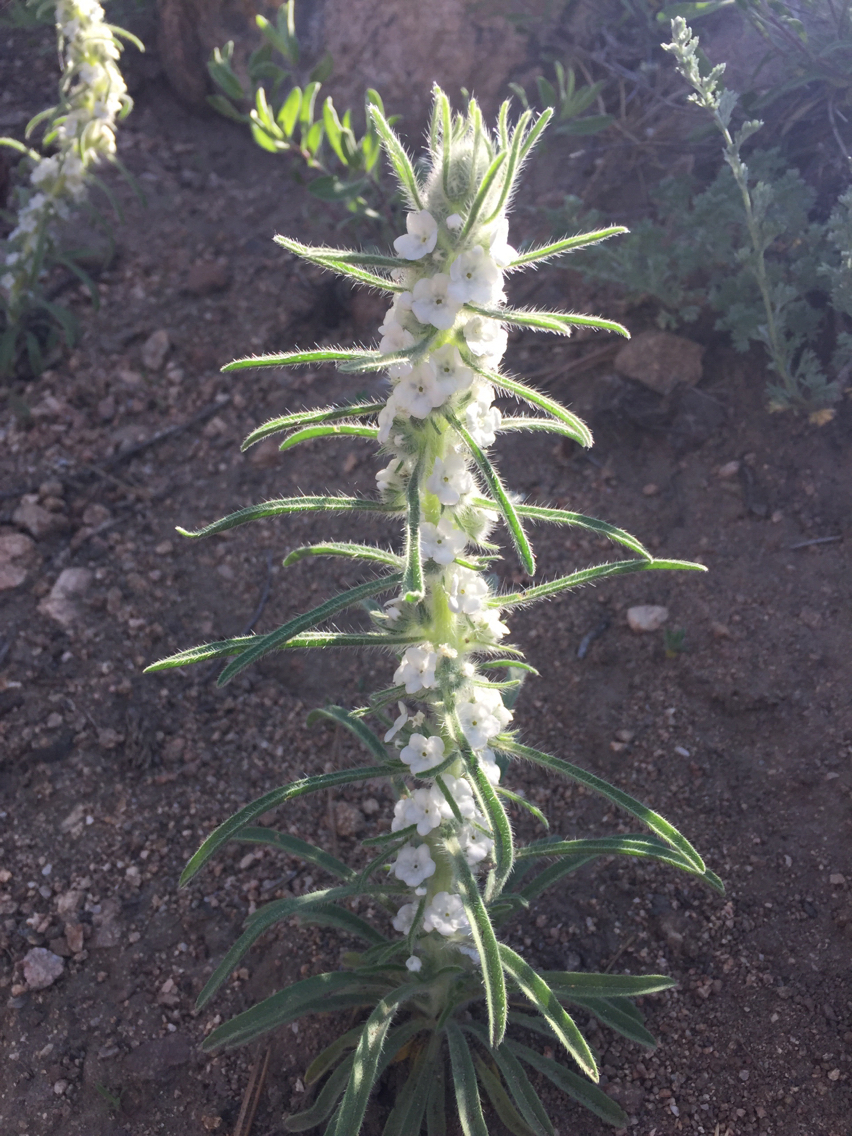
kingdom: Plantae
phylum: Tracheophyta
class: Magnoliopsida
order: Boraginales
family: Boraginaceae
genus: Oreocarya
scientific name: Oreocarya virgata
